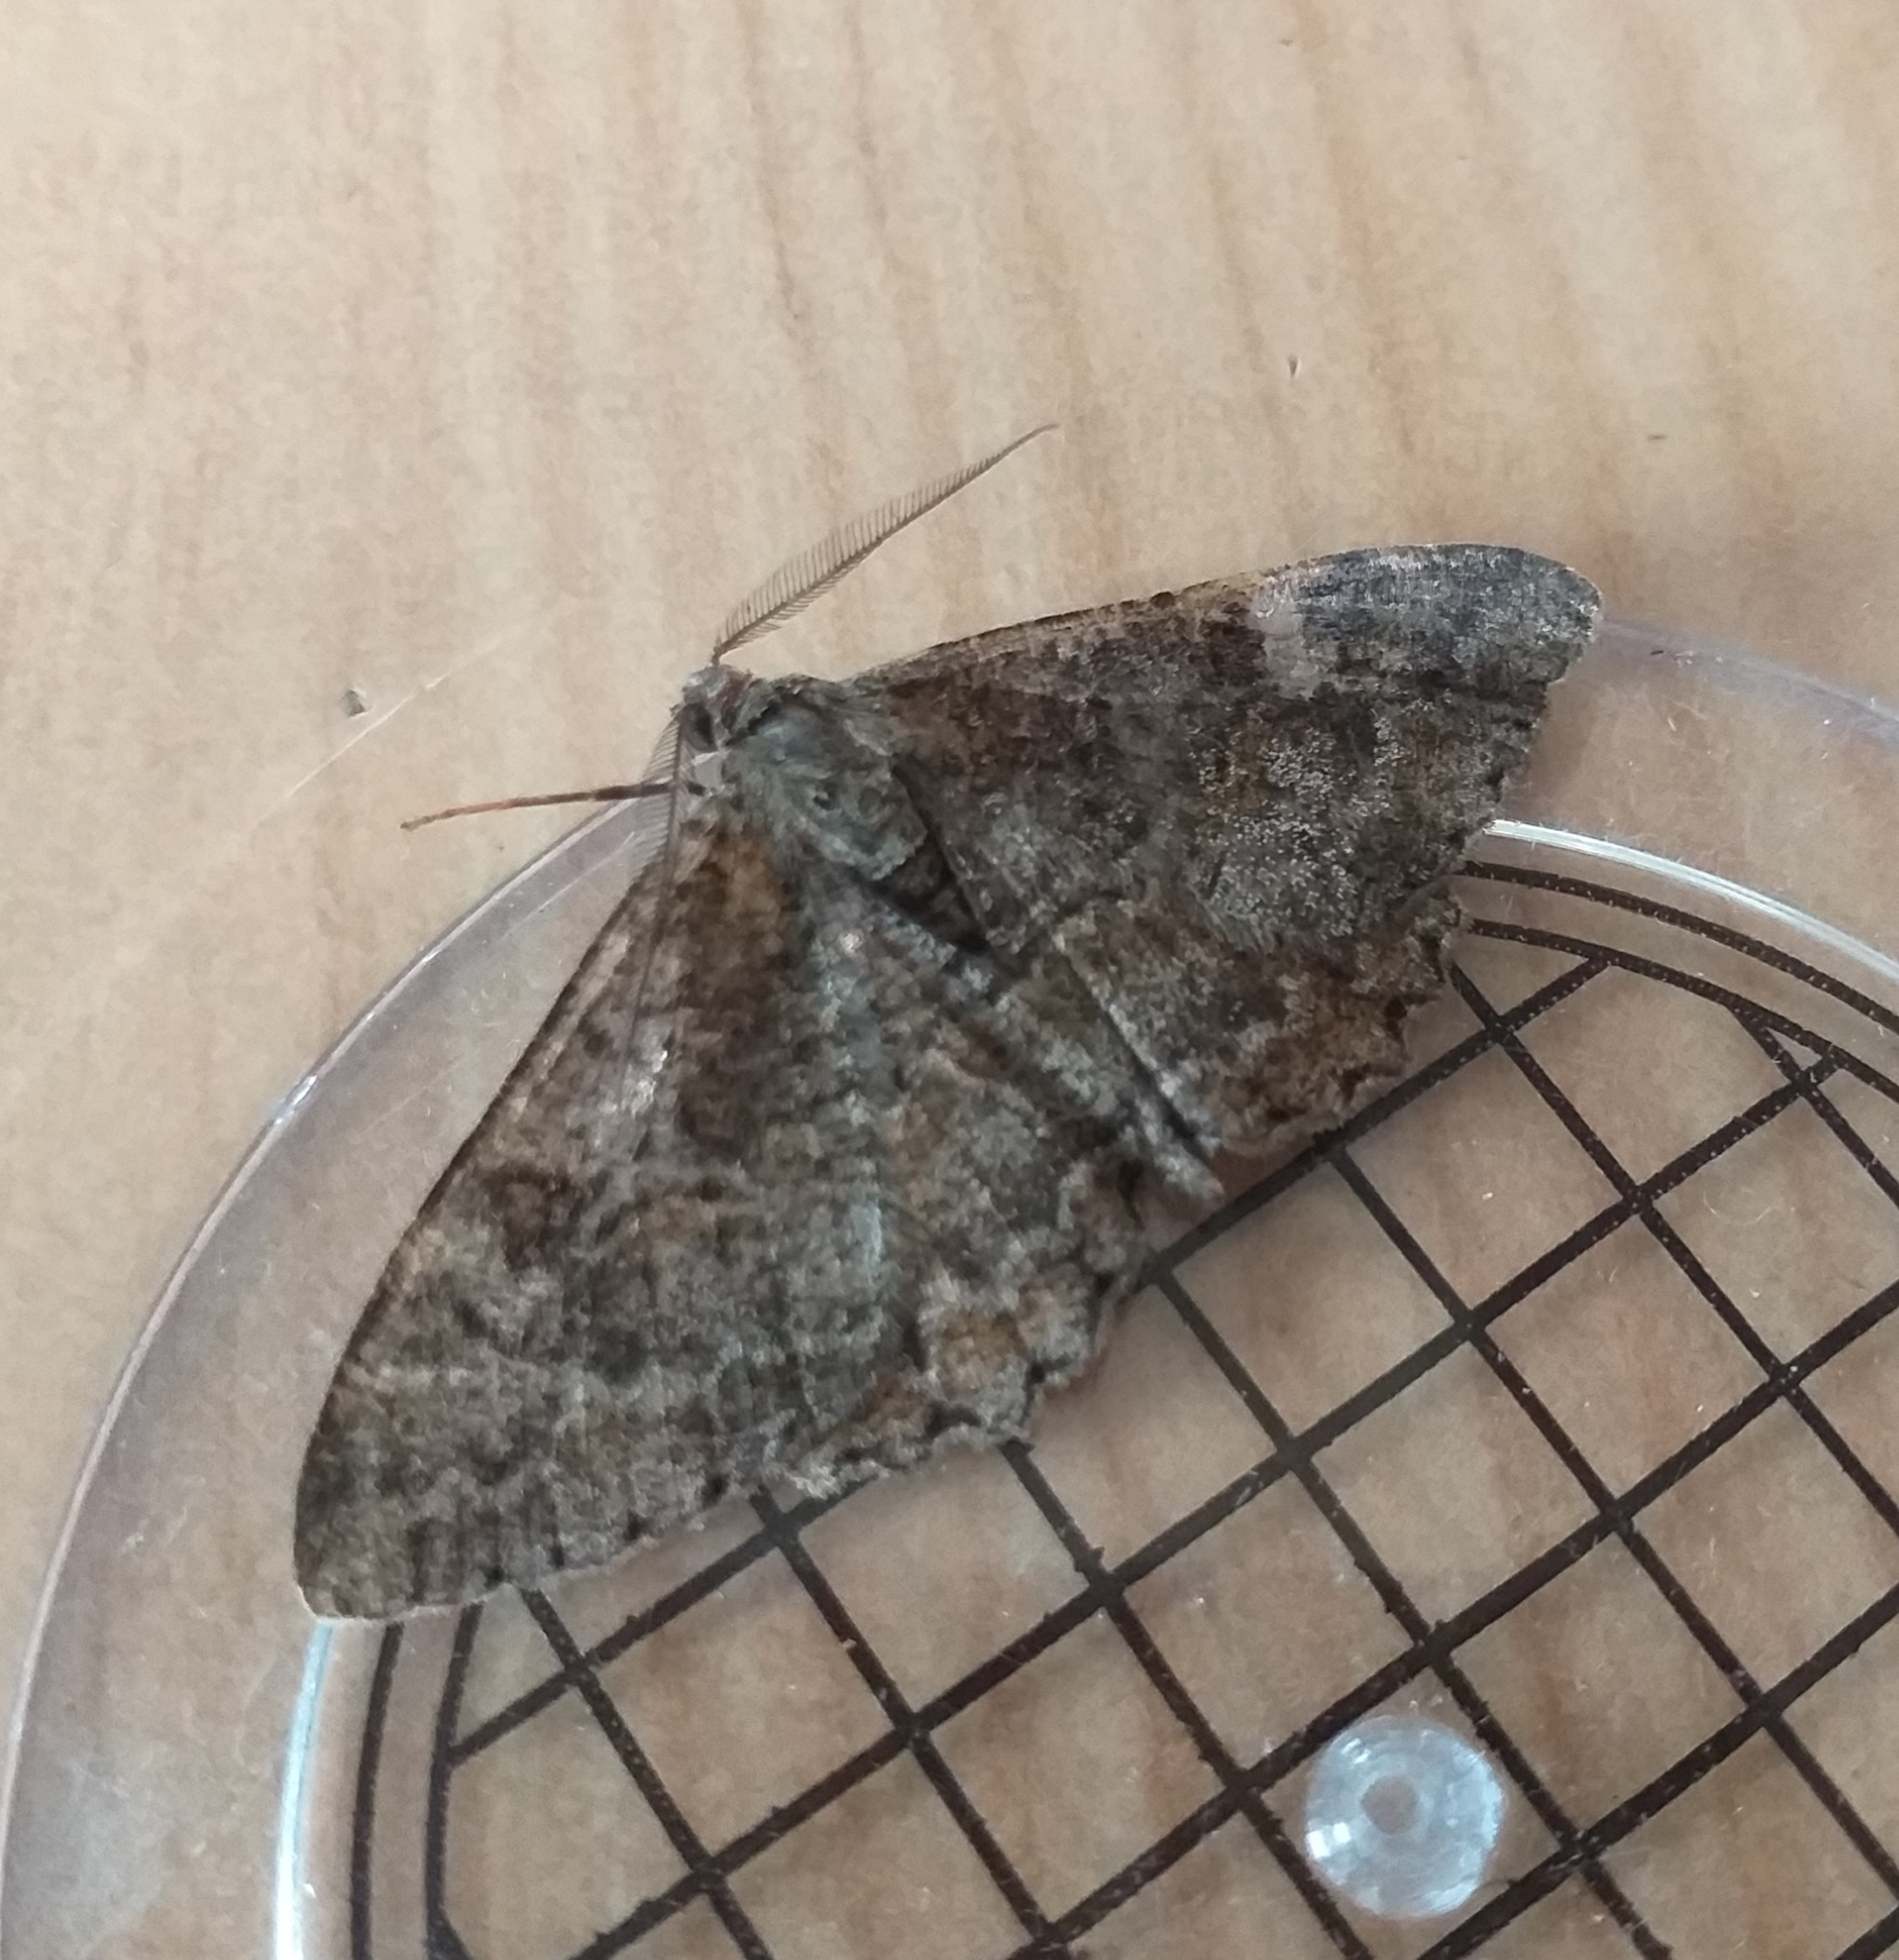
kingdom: Animalia
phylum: Arthropoda
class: Insecta
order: Lepidoptera
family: Geometridae
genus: Alcis
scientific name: Alcis repandata
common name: Mottled beauty
